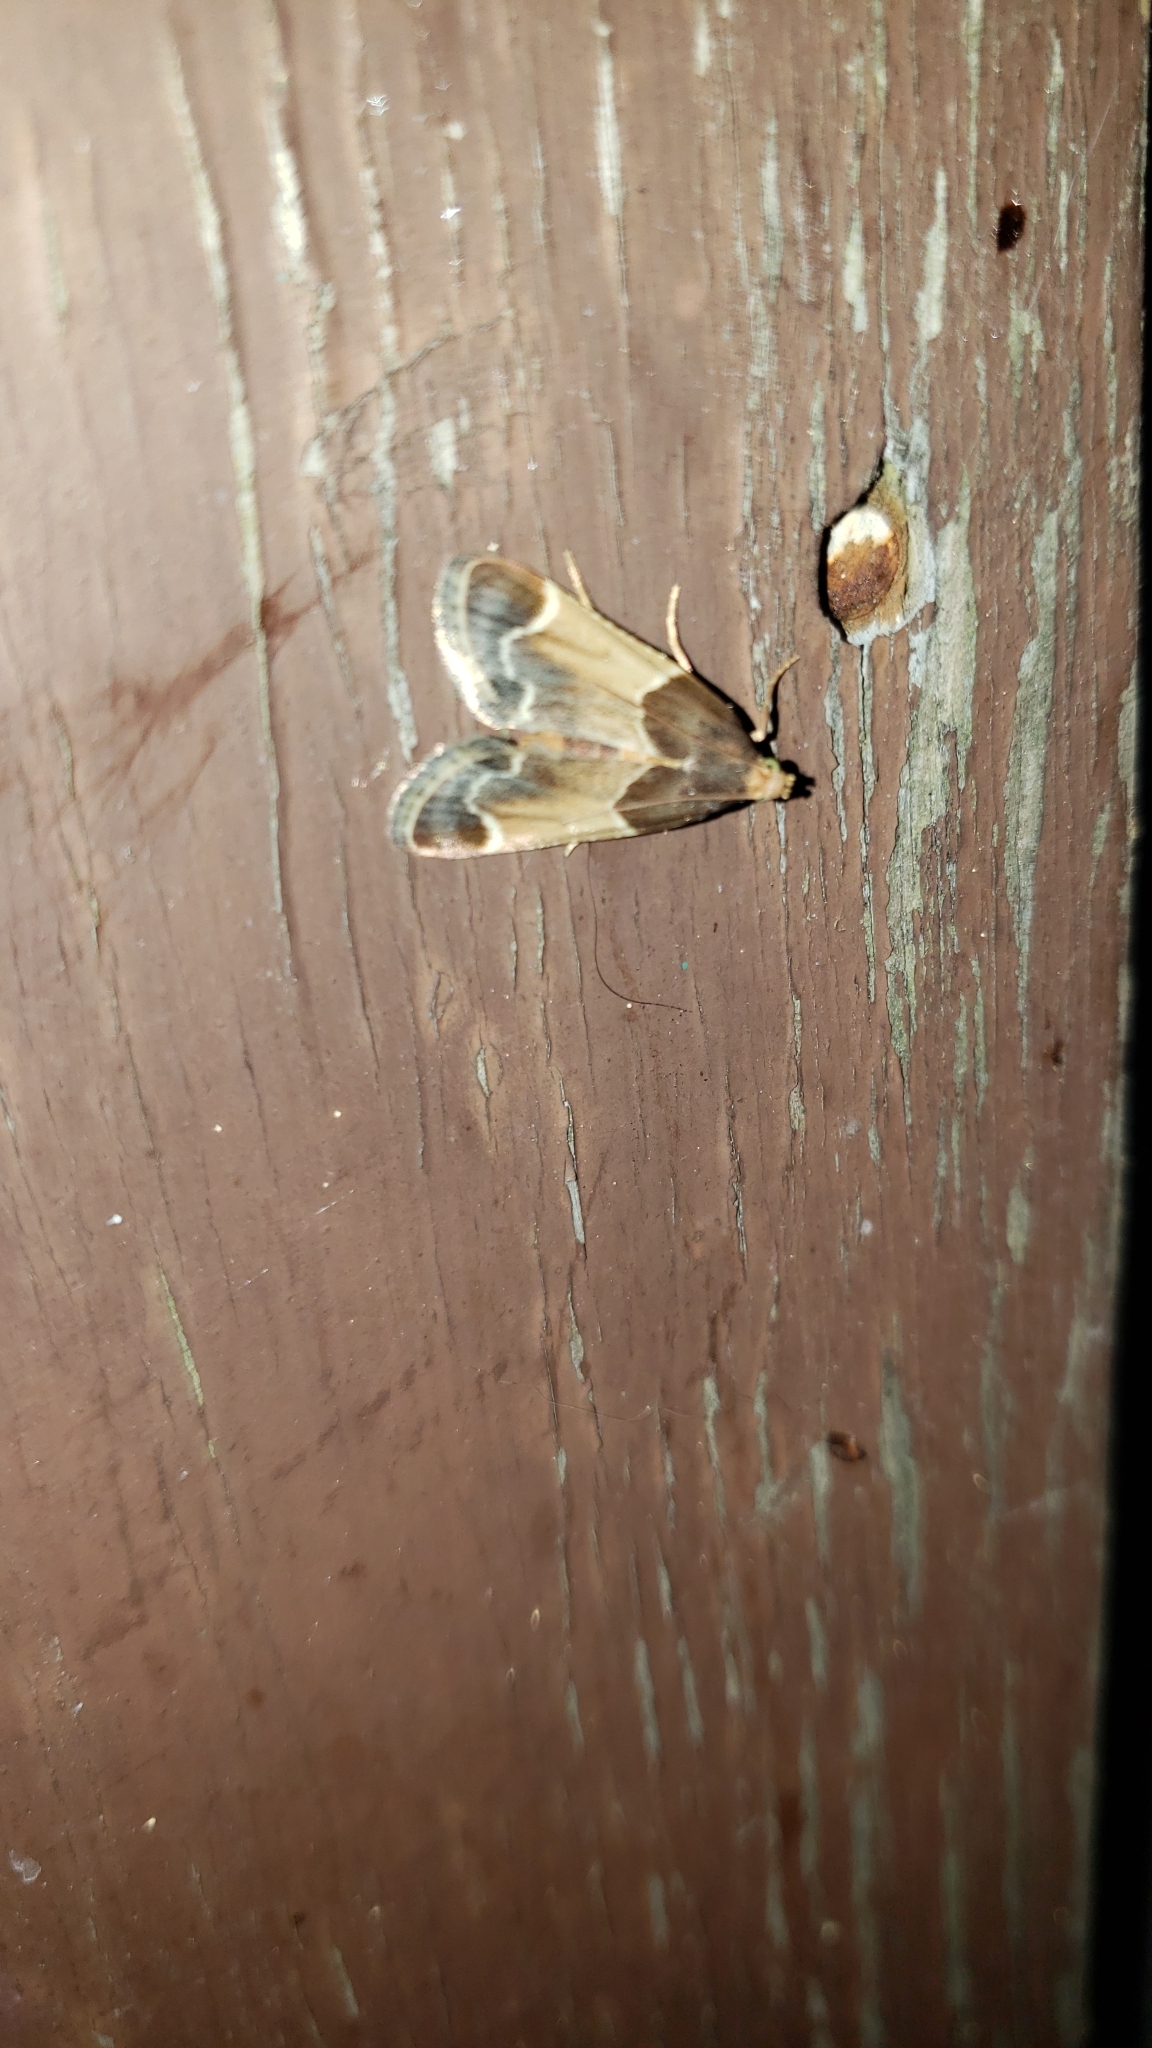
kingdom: Animalia
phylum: Arthropoda
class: Insecta
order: Lepidoptera
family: Pyralidae
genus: Pyralis
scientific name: Pyralis farinalis
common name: Meal moth
